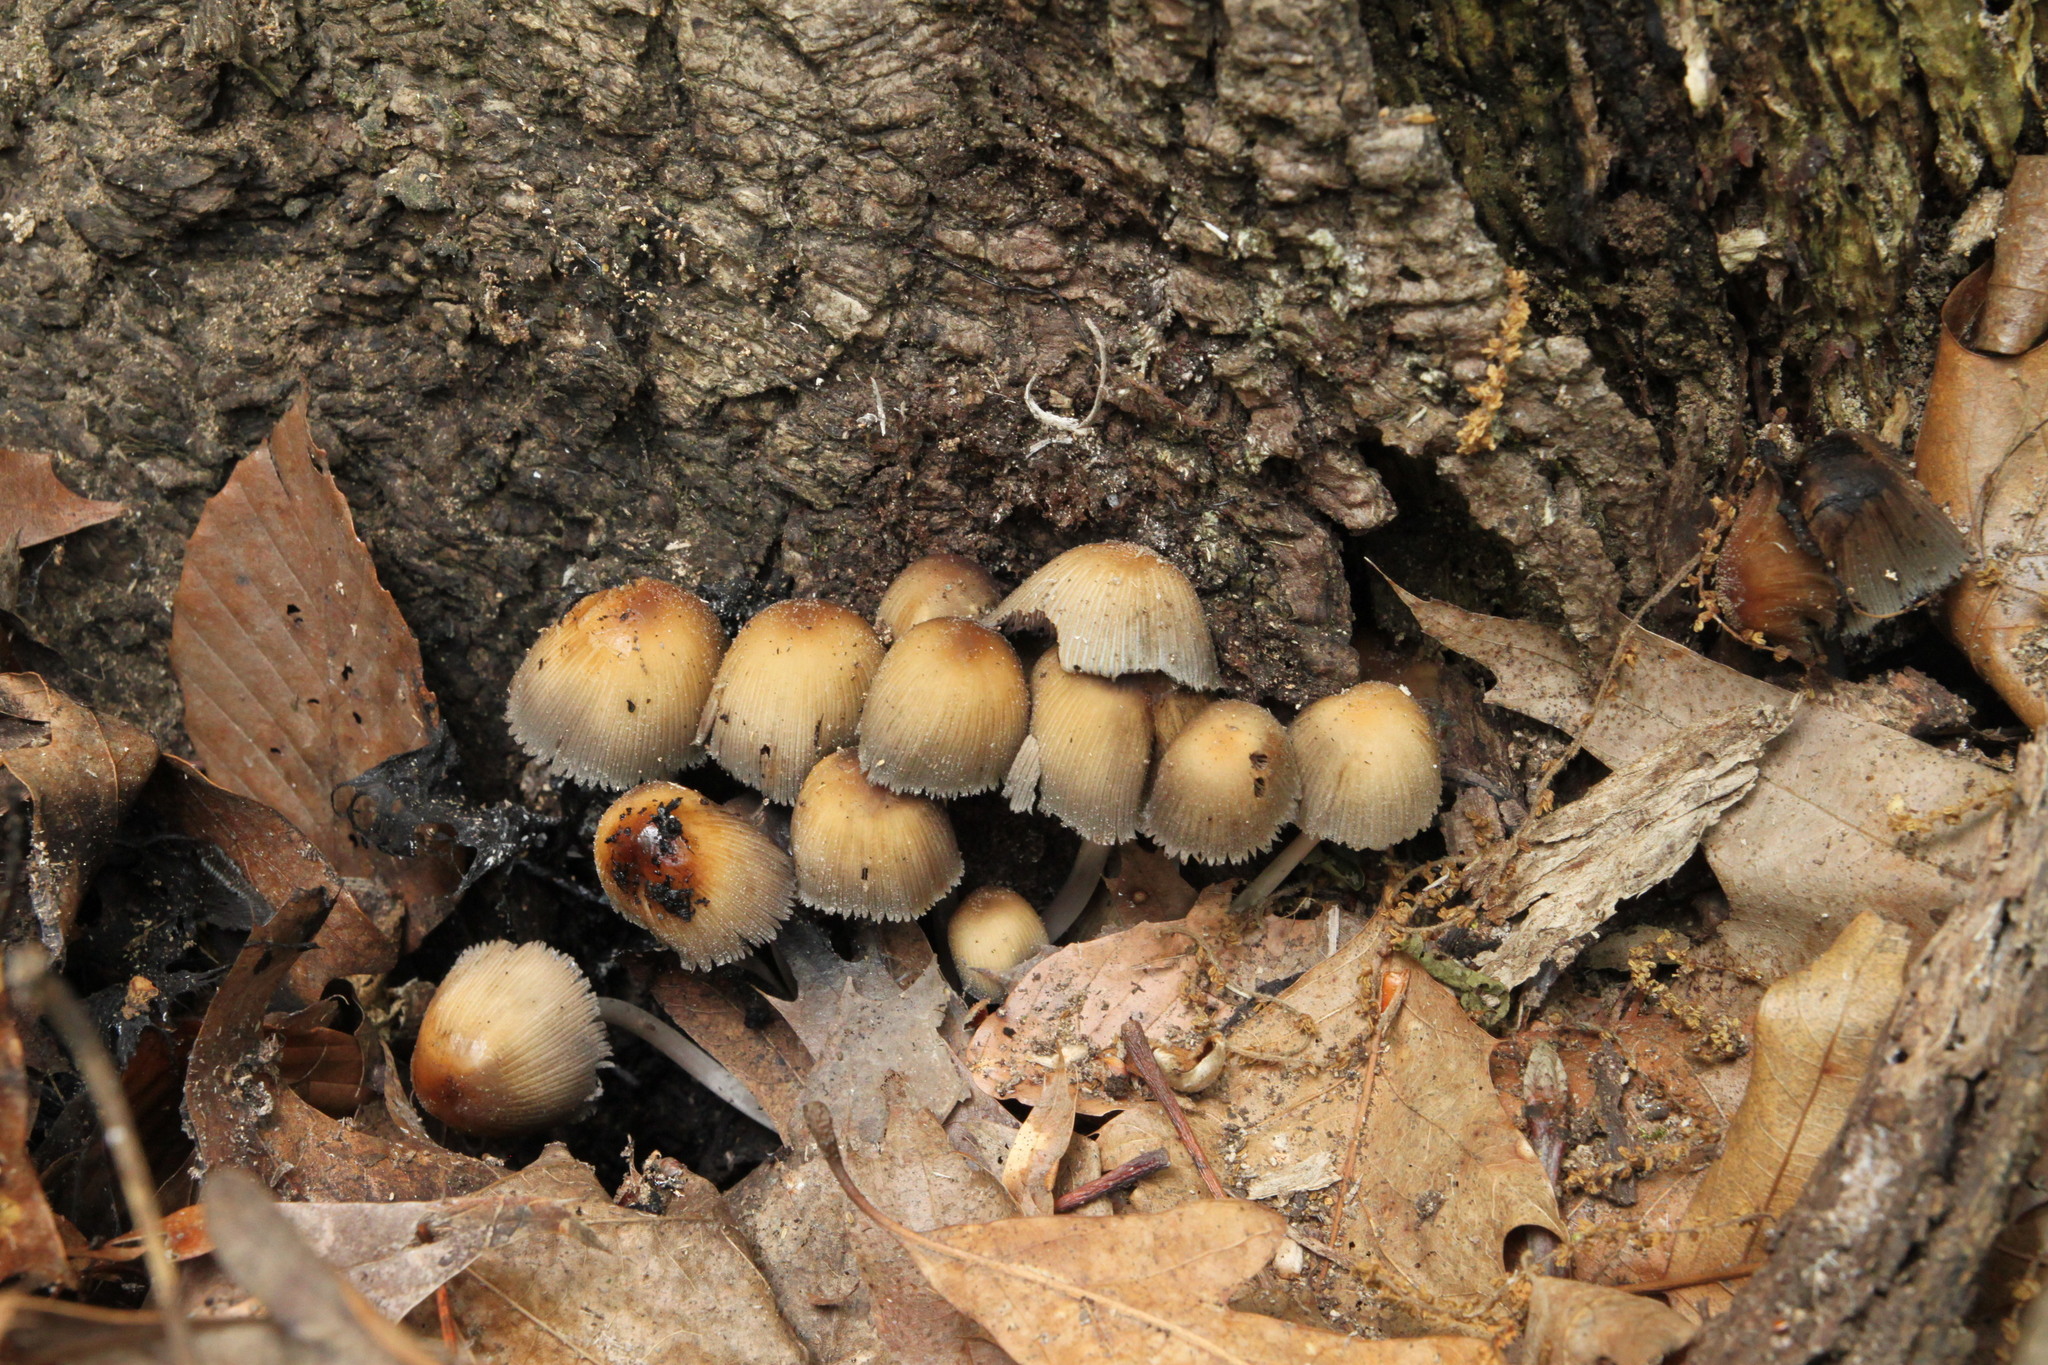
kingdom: Fungi
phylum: Basidiomycota
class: Agaricomycetes
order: Agaricales
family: Psathyrellaceae
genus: Coprinellus
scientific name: Coprinellus micaceus
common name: Glistening ink-cap
